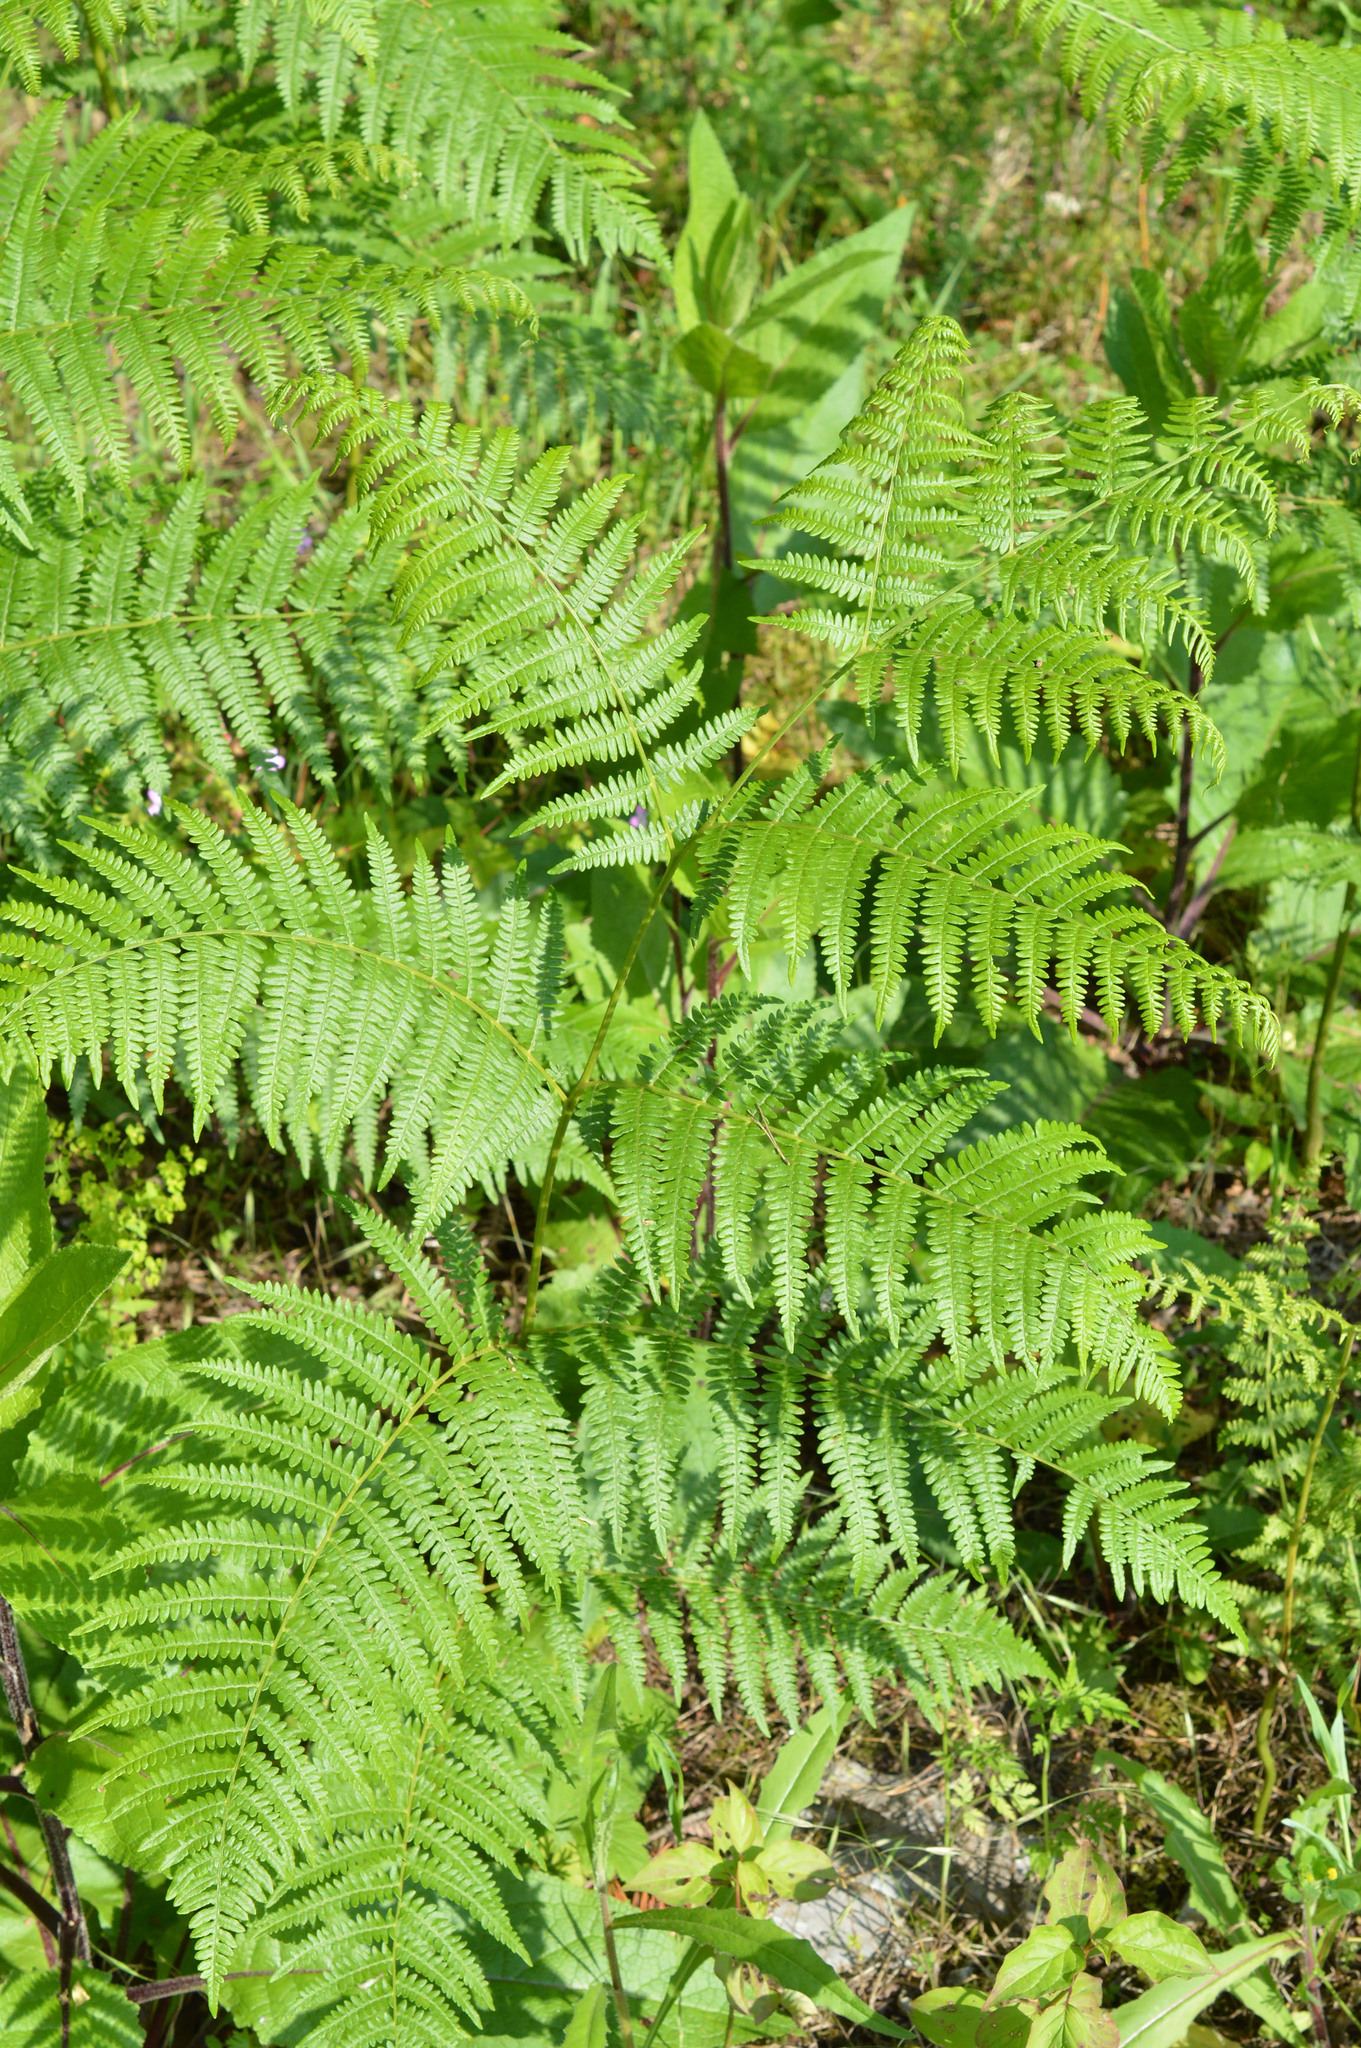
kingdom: Plantae
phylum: Tracheophyta
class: Polypodiopsida
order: Polypodiales
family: Dennstaedtiaceae
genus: Pteridium
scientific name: Pteridium aquilinum
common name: Bracken
